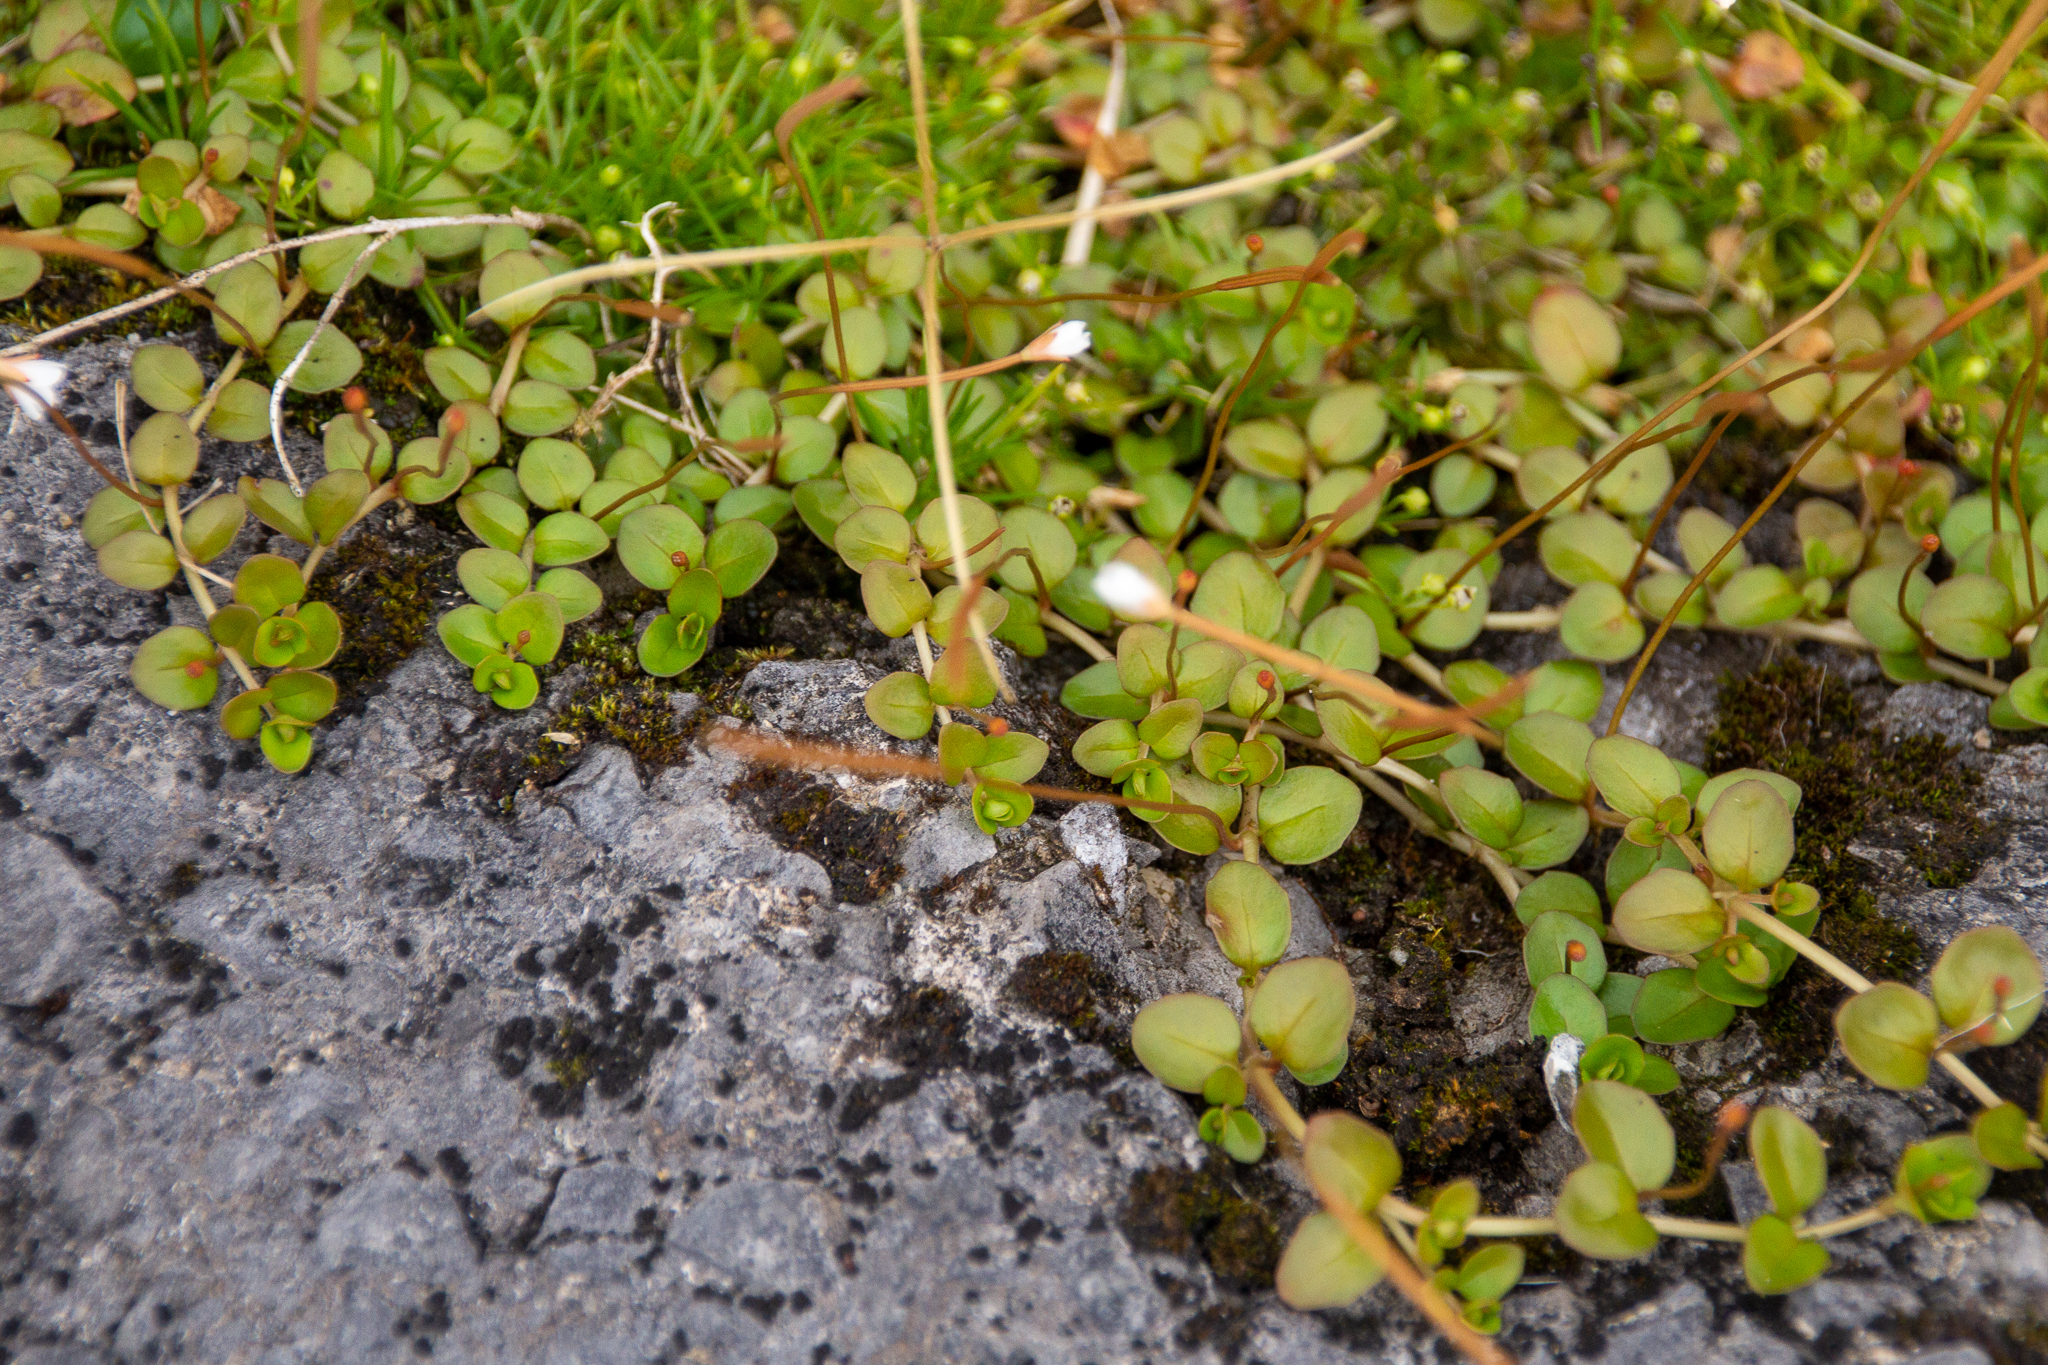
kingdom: Plantae
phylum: Tracheophyta
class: Magnoliopsida
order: Myrtales
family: Onagraceae
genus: Epilobium
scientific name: Epilobium brunnescens
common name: New zealand willowherb
